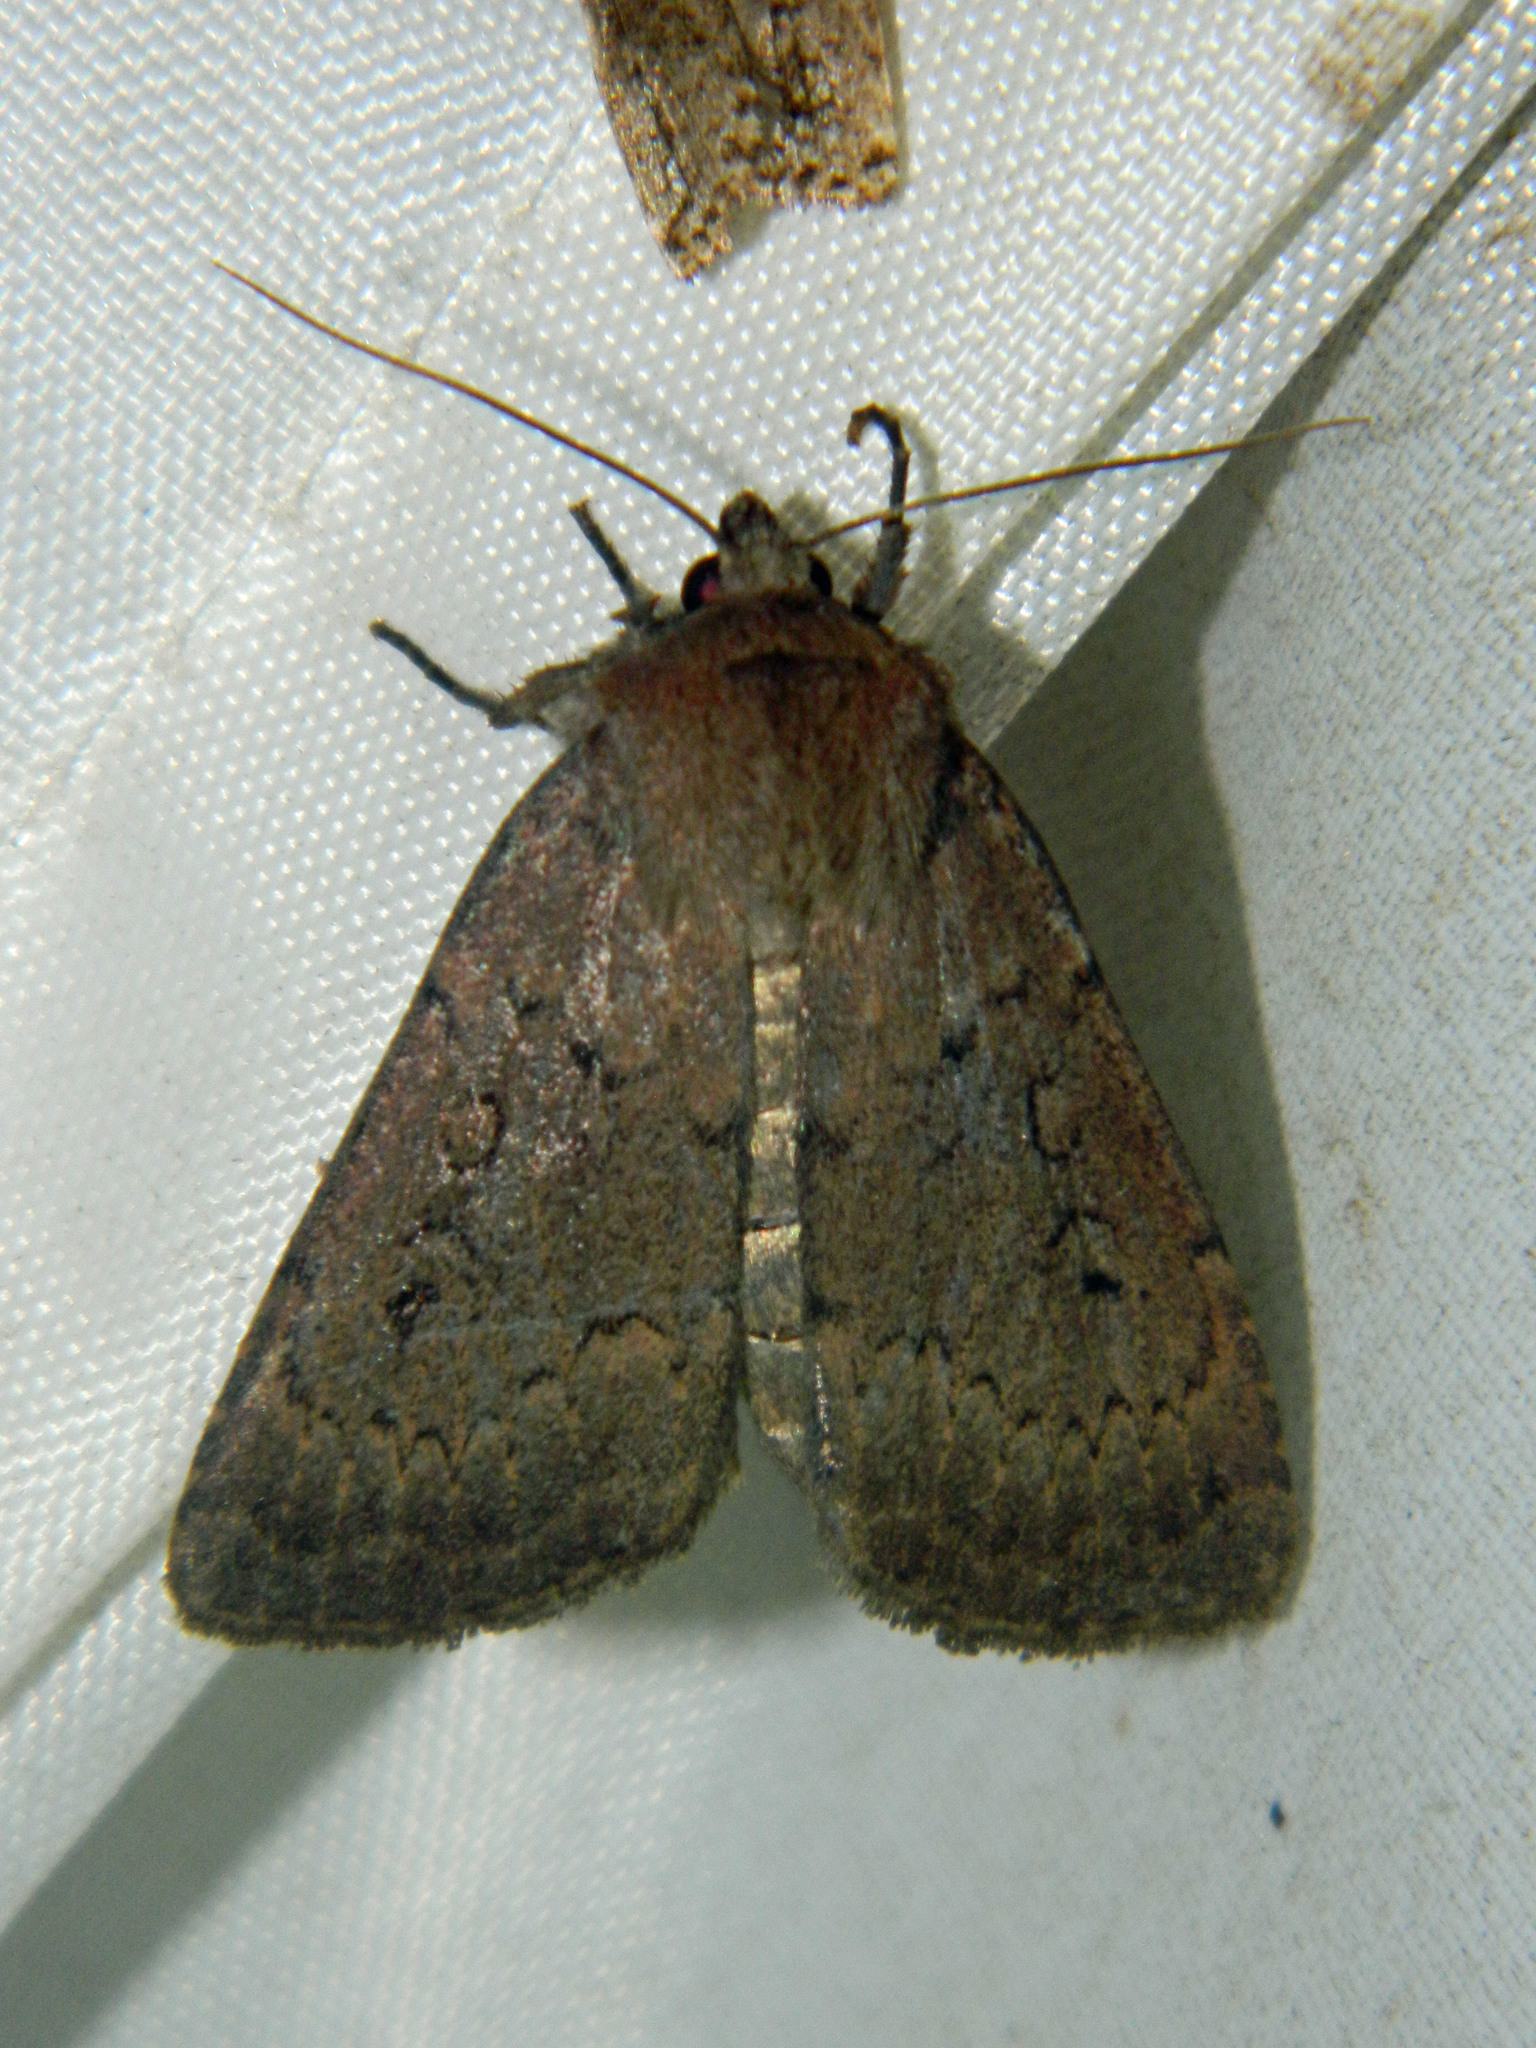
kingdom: Animalia
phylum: Arthropoda
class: Insecta
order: Lepidoptera
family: Noctuidae
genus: Graphiphora
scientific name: Graphiphora augur
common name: Double dart
